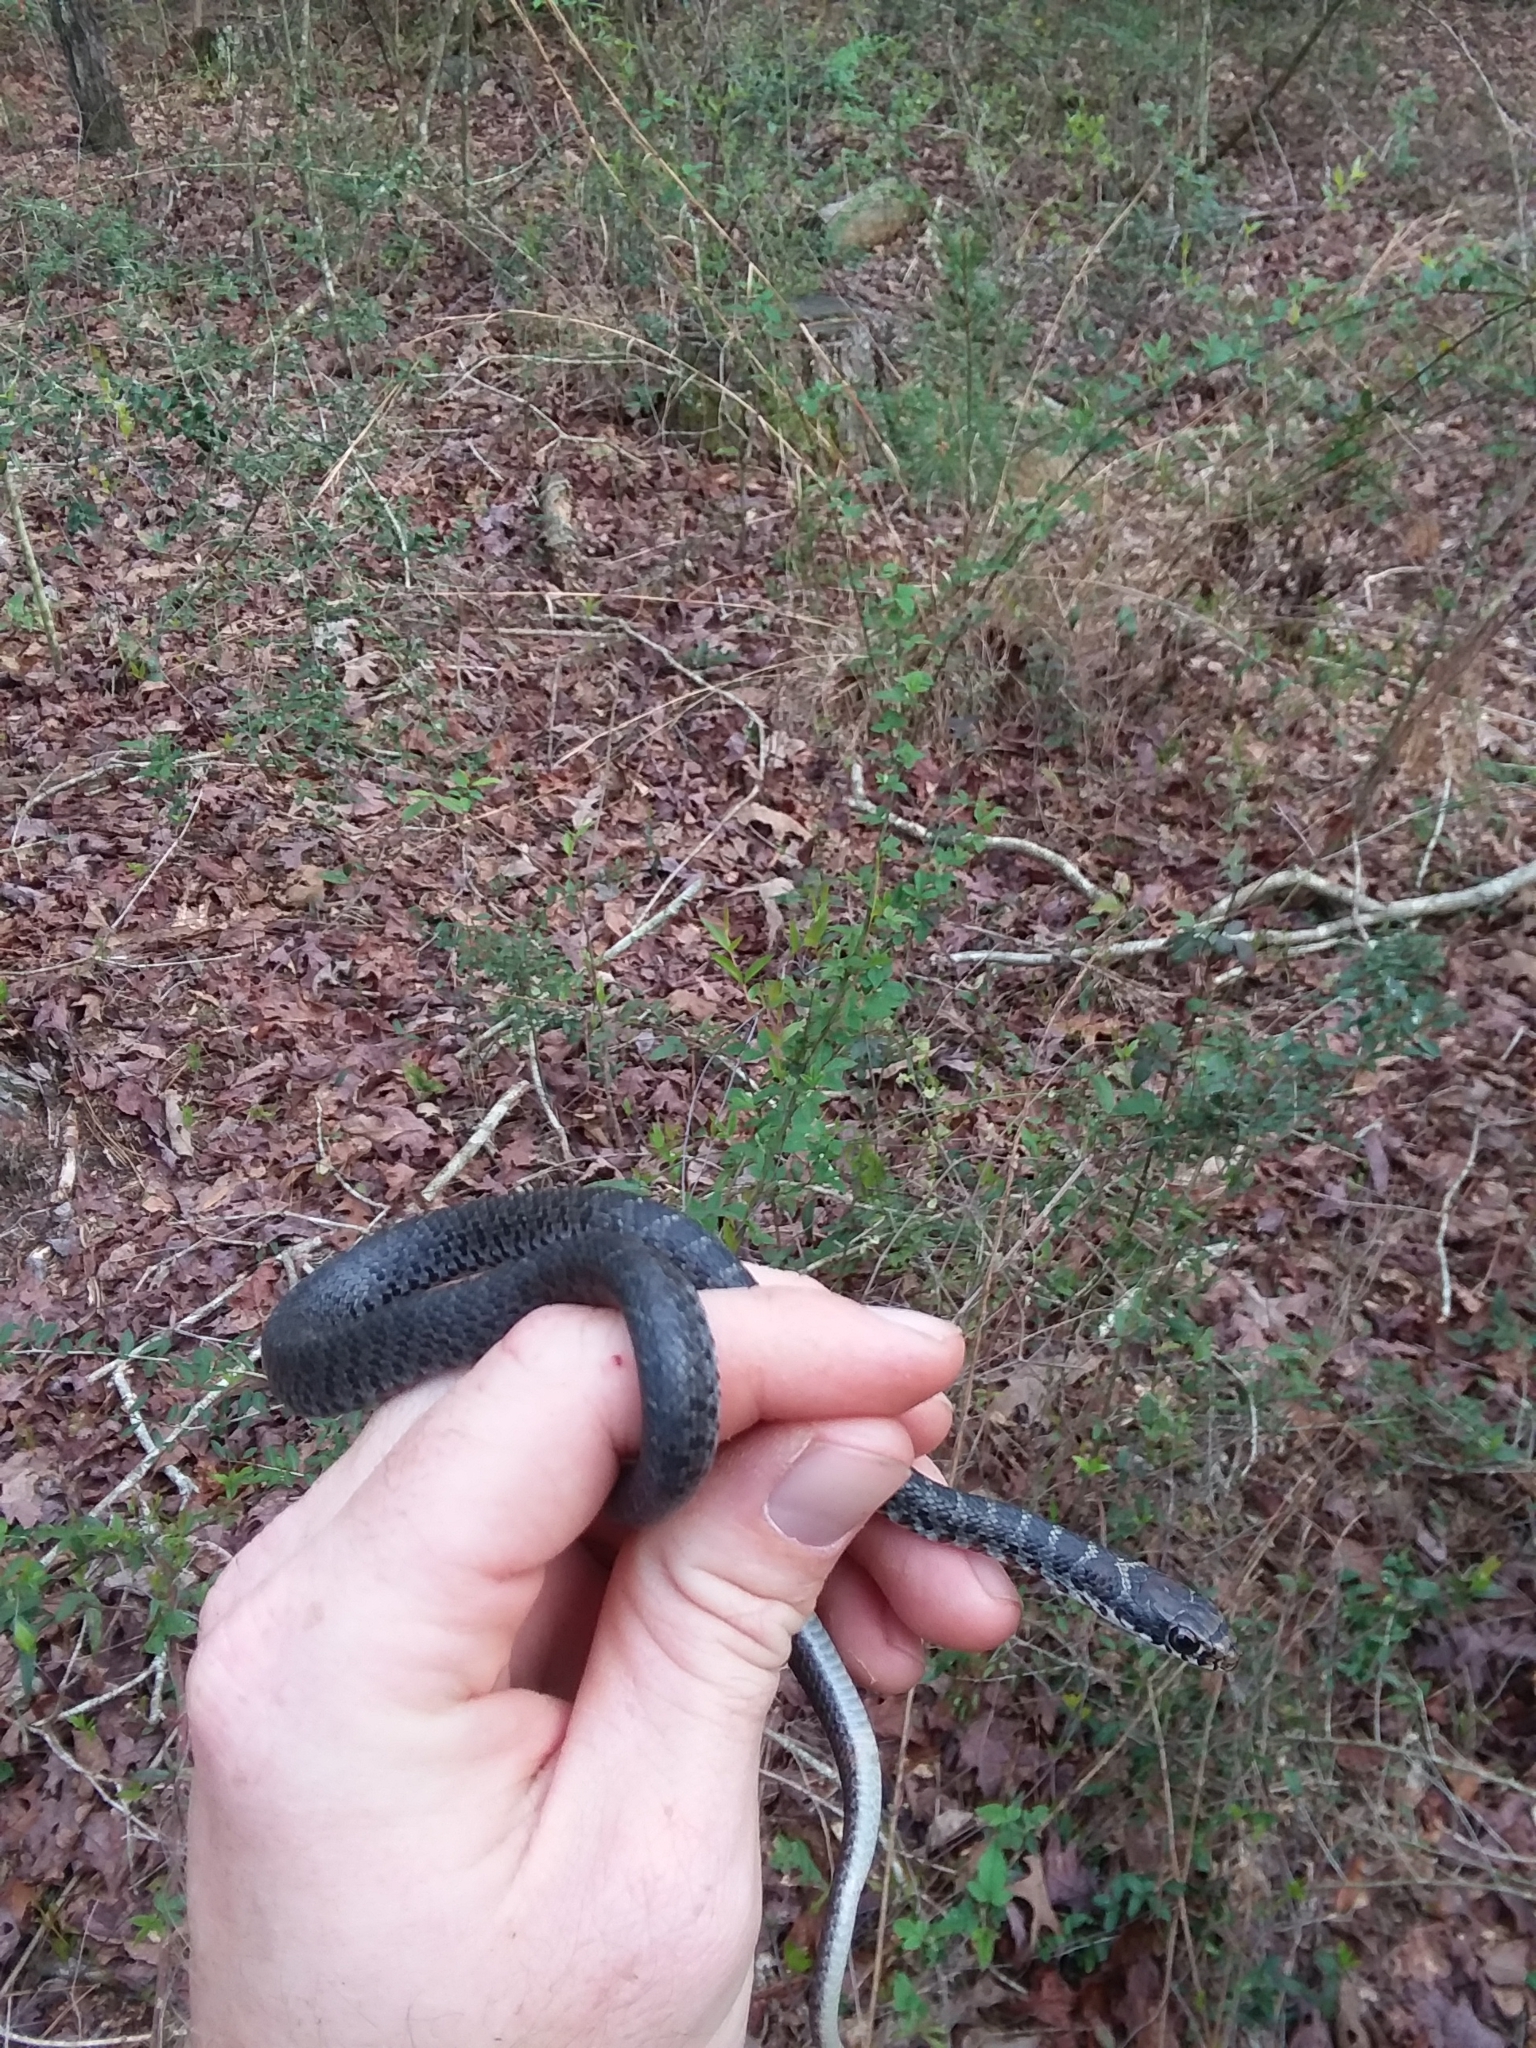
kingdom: Animalia
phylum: Chordata
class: Squamata
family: Colubridae
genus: Coluber
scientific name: Coluber constrictor
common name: Eastern racer
